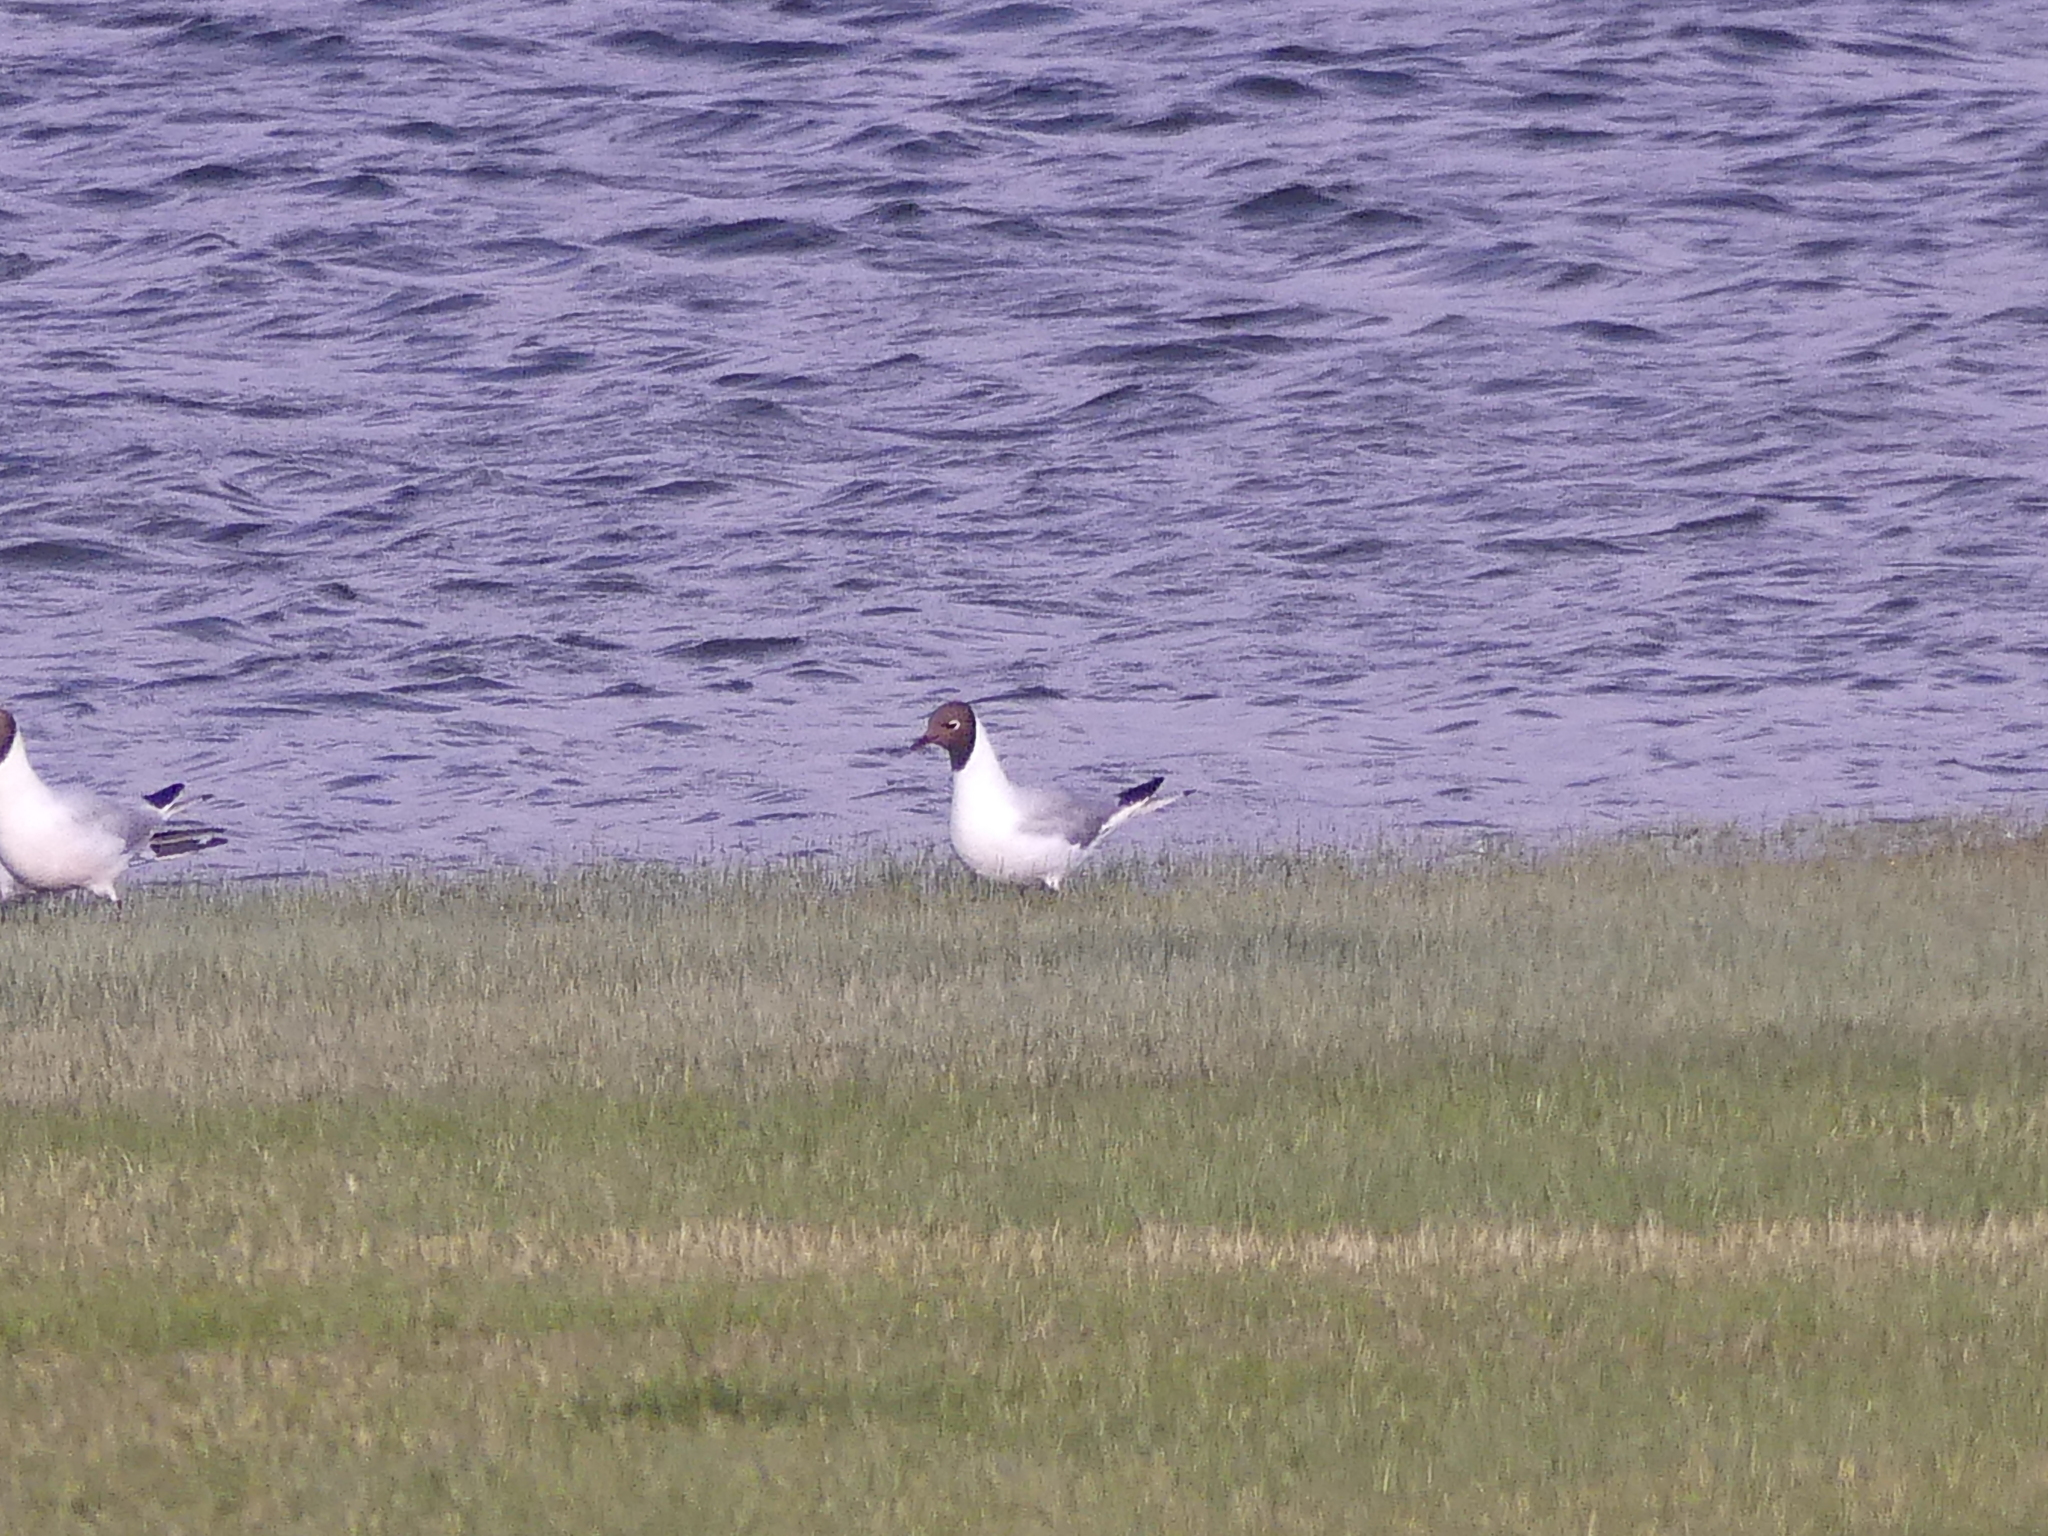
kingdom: Animalia
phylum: Chordata
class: Aves
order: Charadriiformes
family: Laridae
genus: Chroicocephalus
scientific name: Chroicocephalus ridibundus
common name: Black-headed gull
